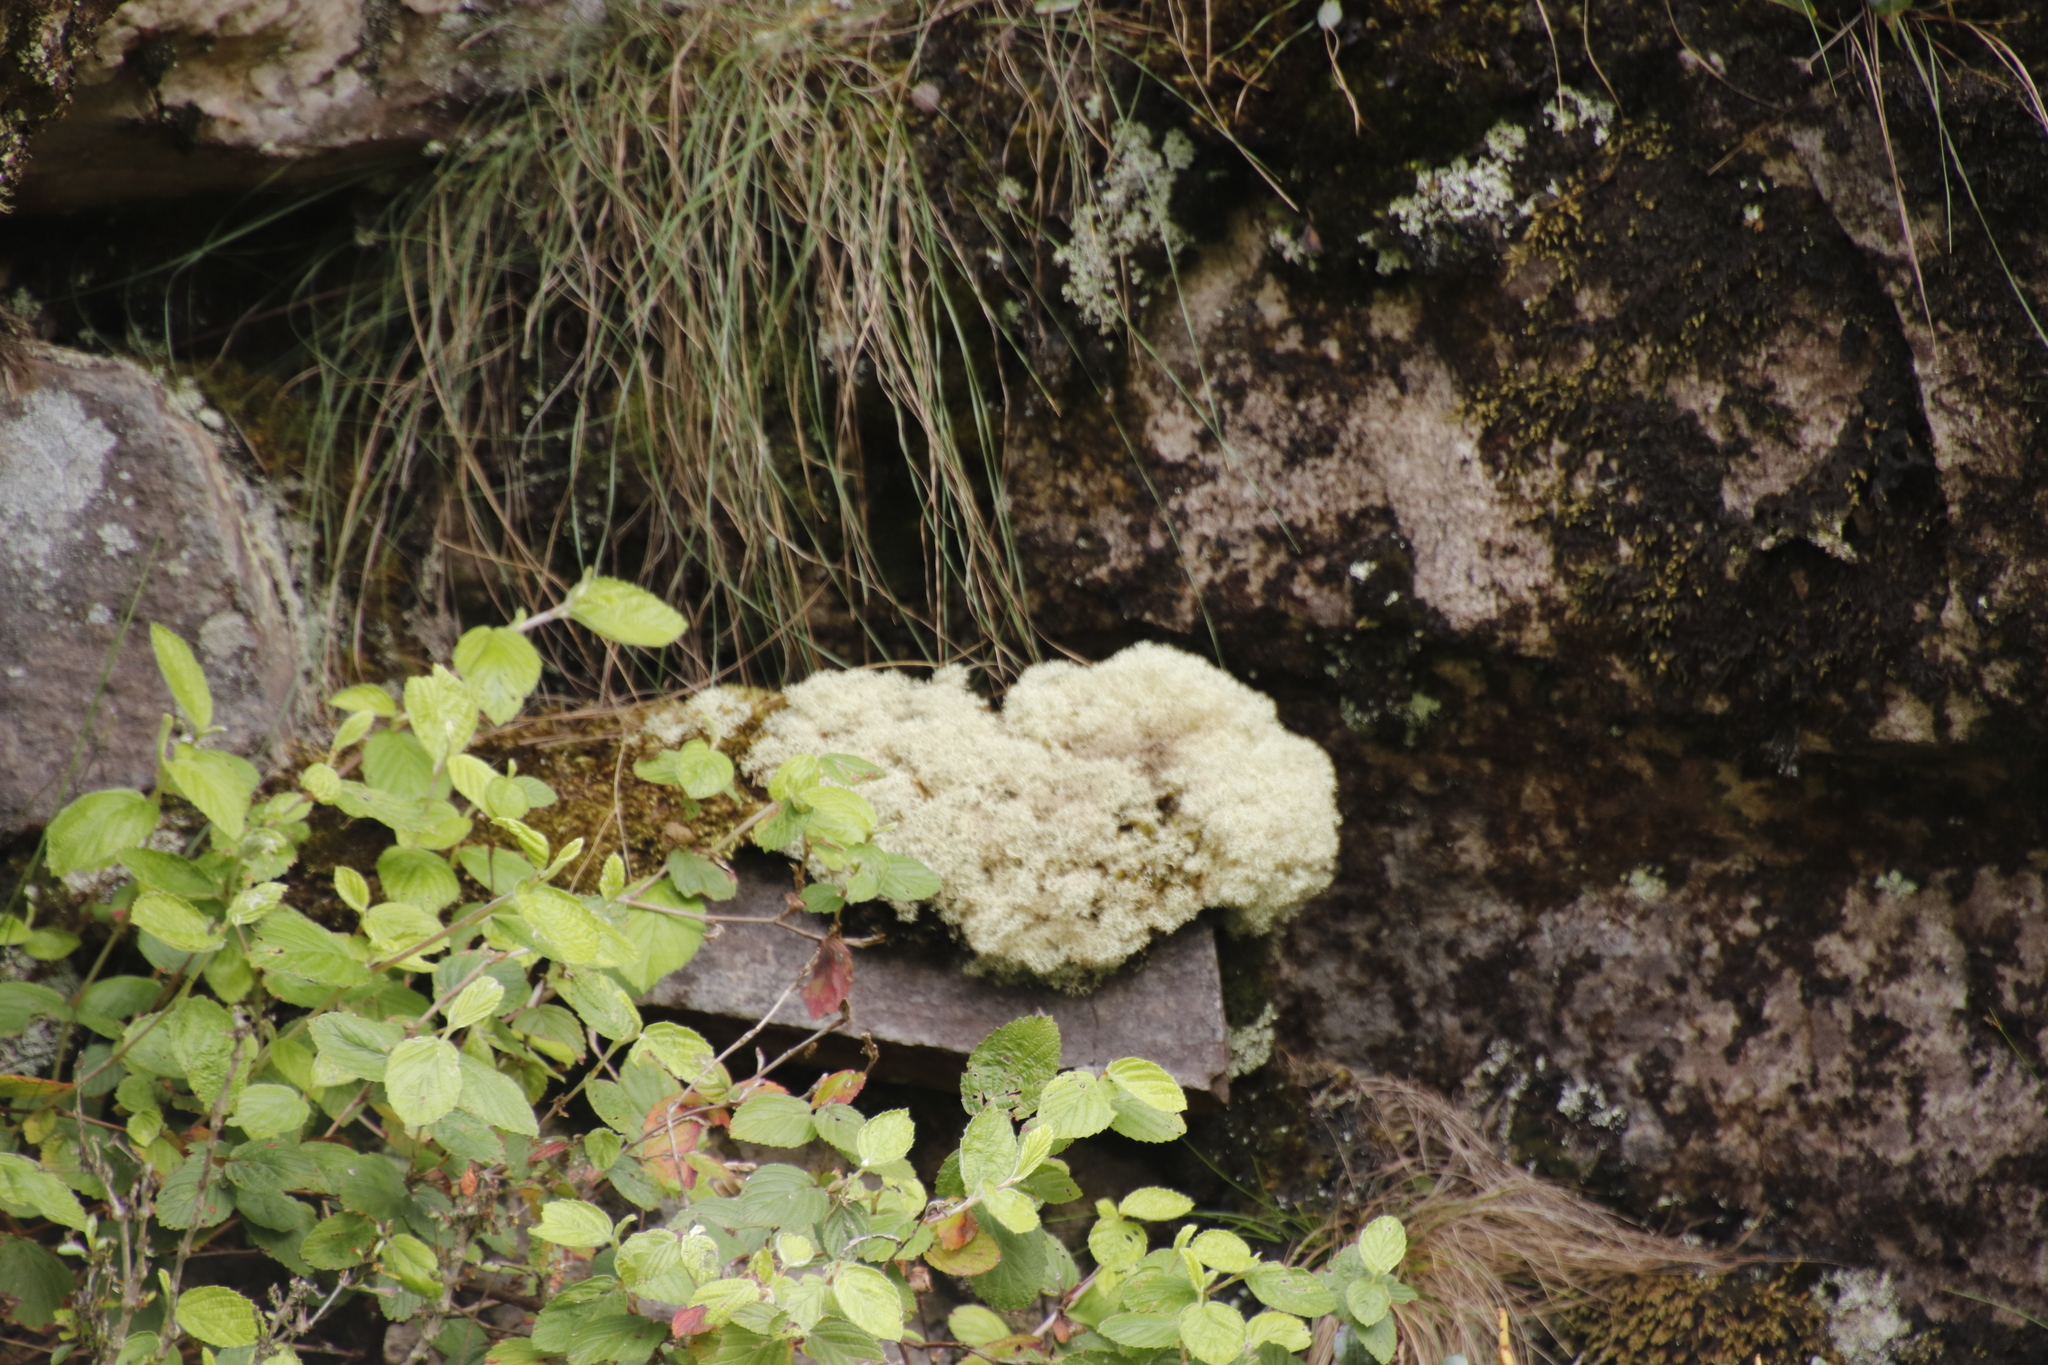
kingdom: Fungi
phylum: Ascomycota
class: Lecanoromycetes
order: Lecanorales
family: Cladoniaceae
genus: Cladonia
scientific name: Cladonia confusa
